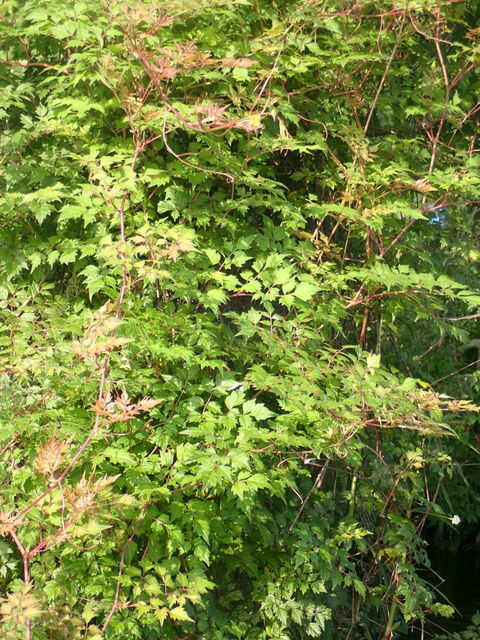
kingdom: Plantae
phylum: Tracheophyta
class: Magnoliopsida
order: Vitales
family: Vitaceae
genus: Nekemias
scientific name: Nekemias arborea
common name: Peppervine
